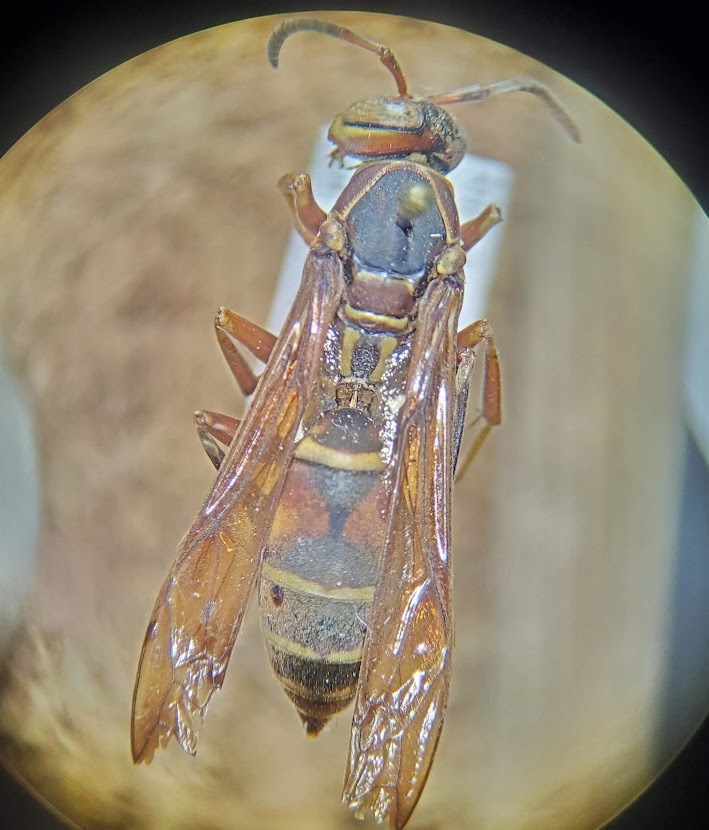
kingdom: Animalia
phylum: Arthropoda
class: Insecta
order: Hymenoptera
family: Eumenidae
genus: Polistes
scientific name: Polistes fuscatus
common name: Dark paper wasp
